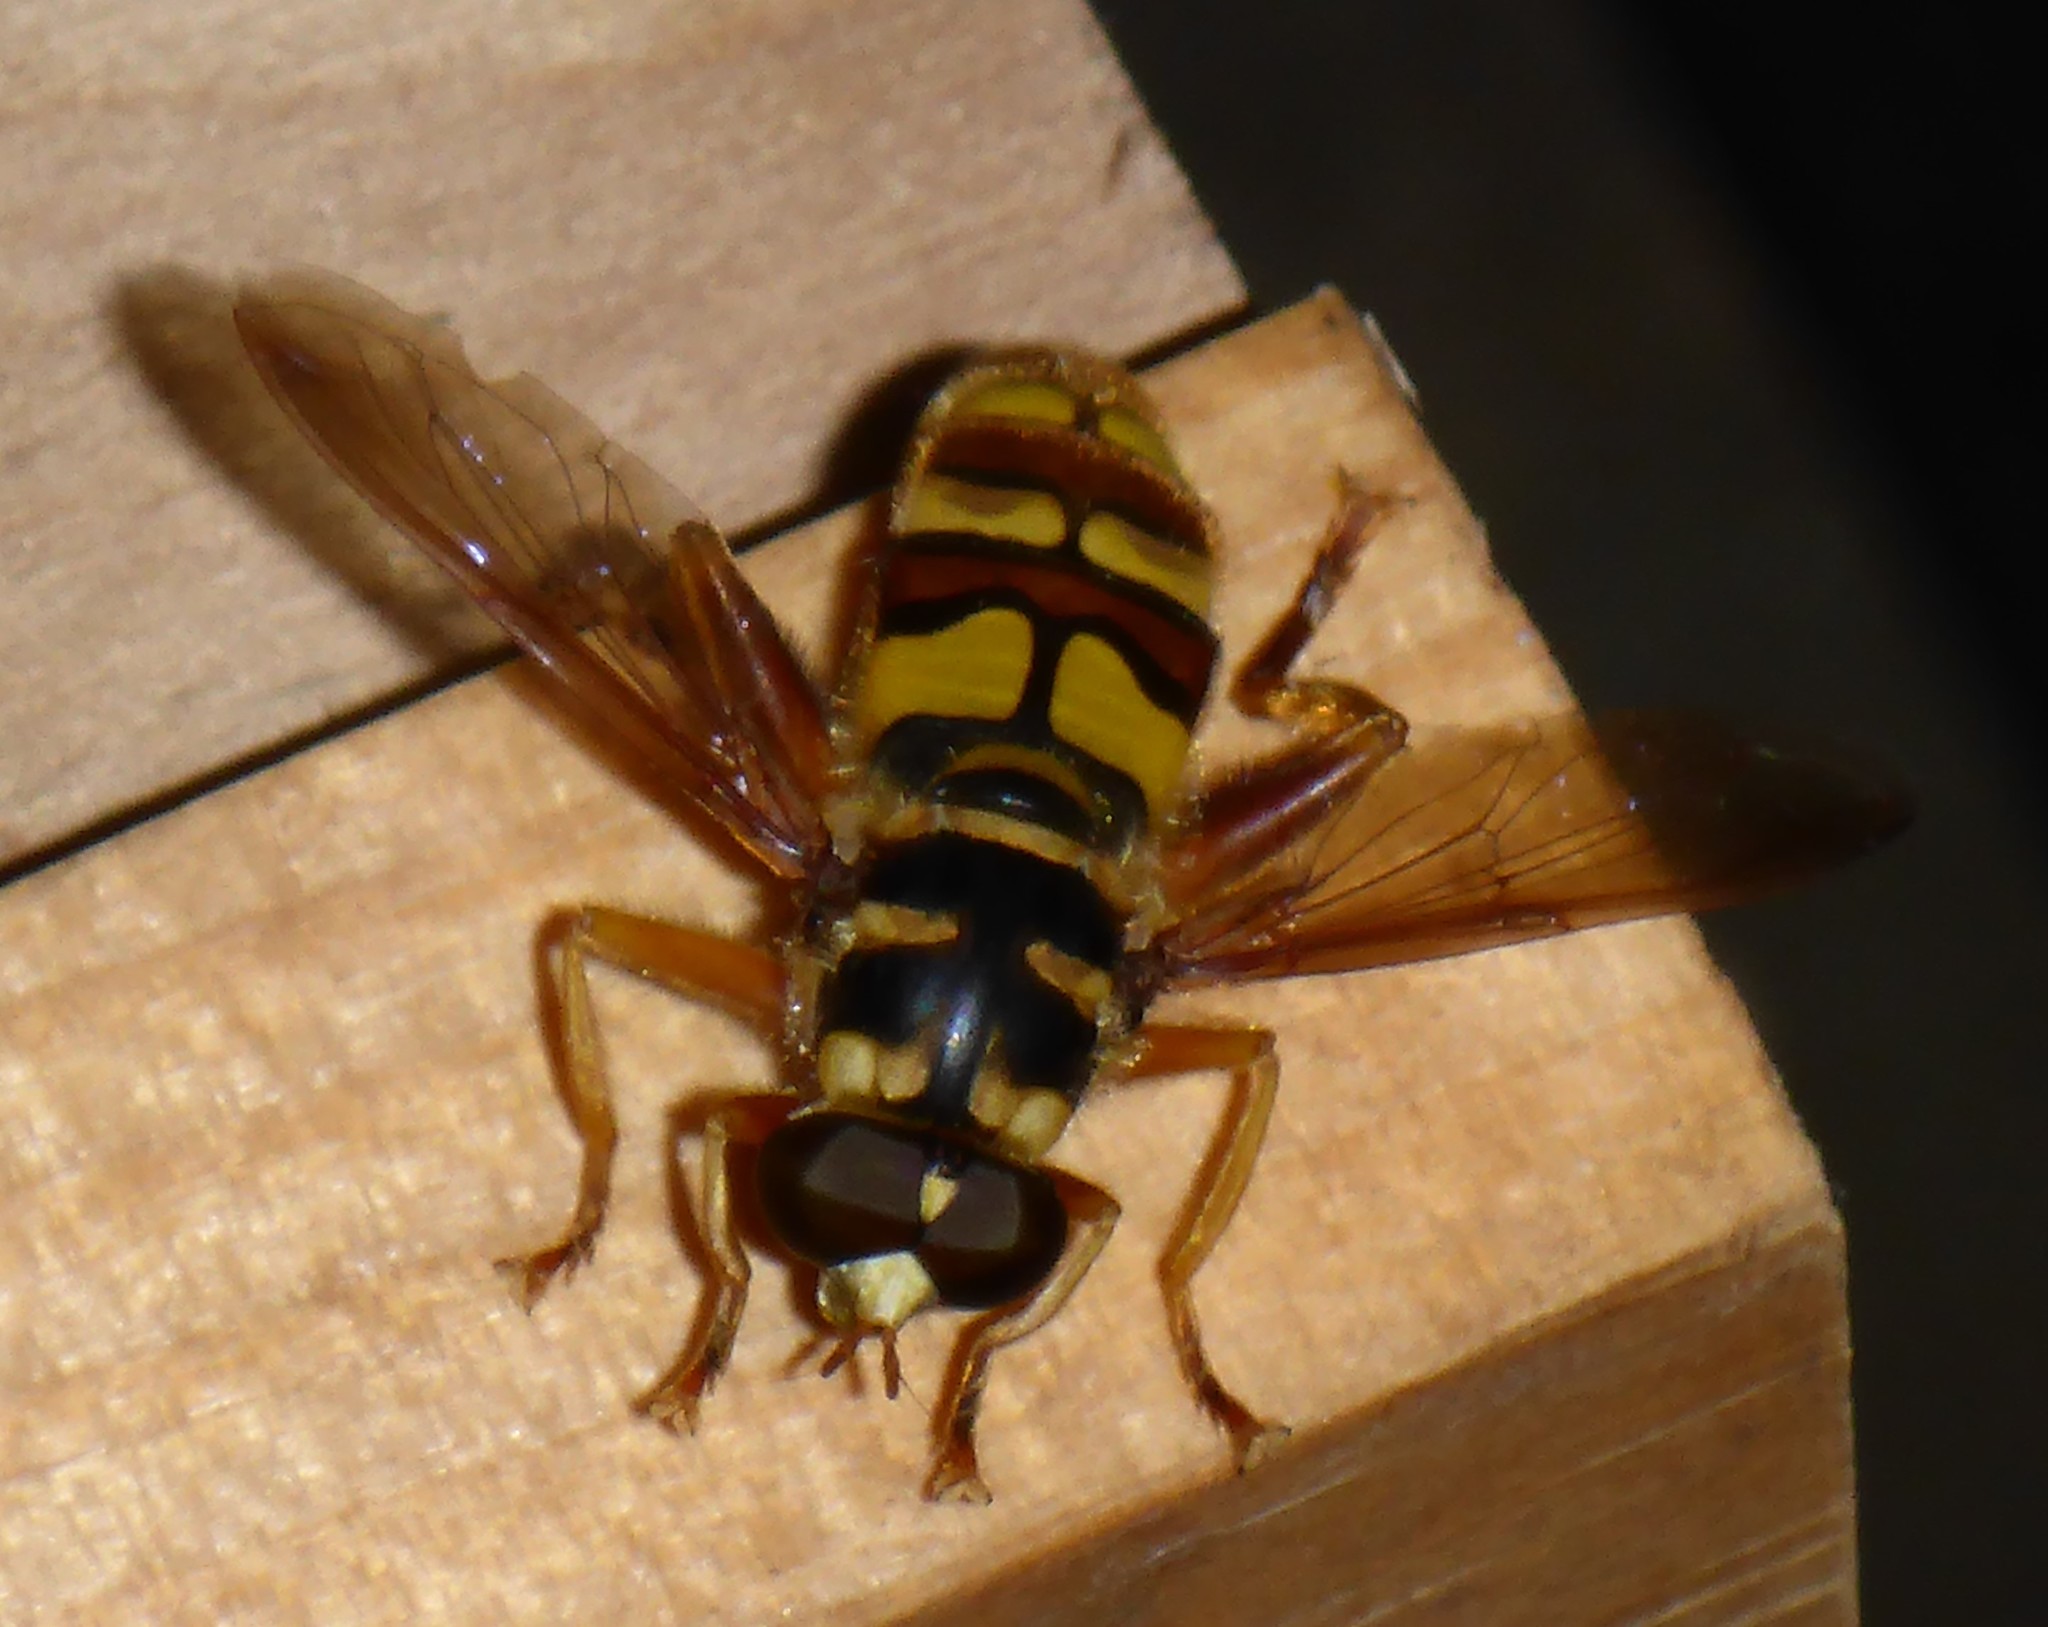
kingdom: Animalia
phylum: Arthropoda
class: Insecta
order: Diptera
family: Syrphidae
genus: Milesia
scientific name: Milesia virginiensis
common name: Virginia giant
